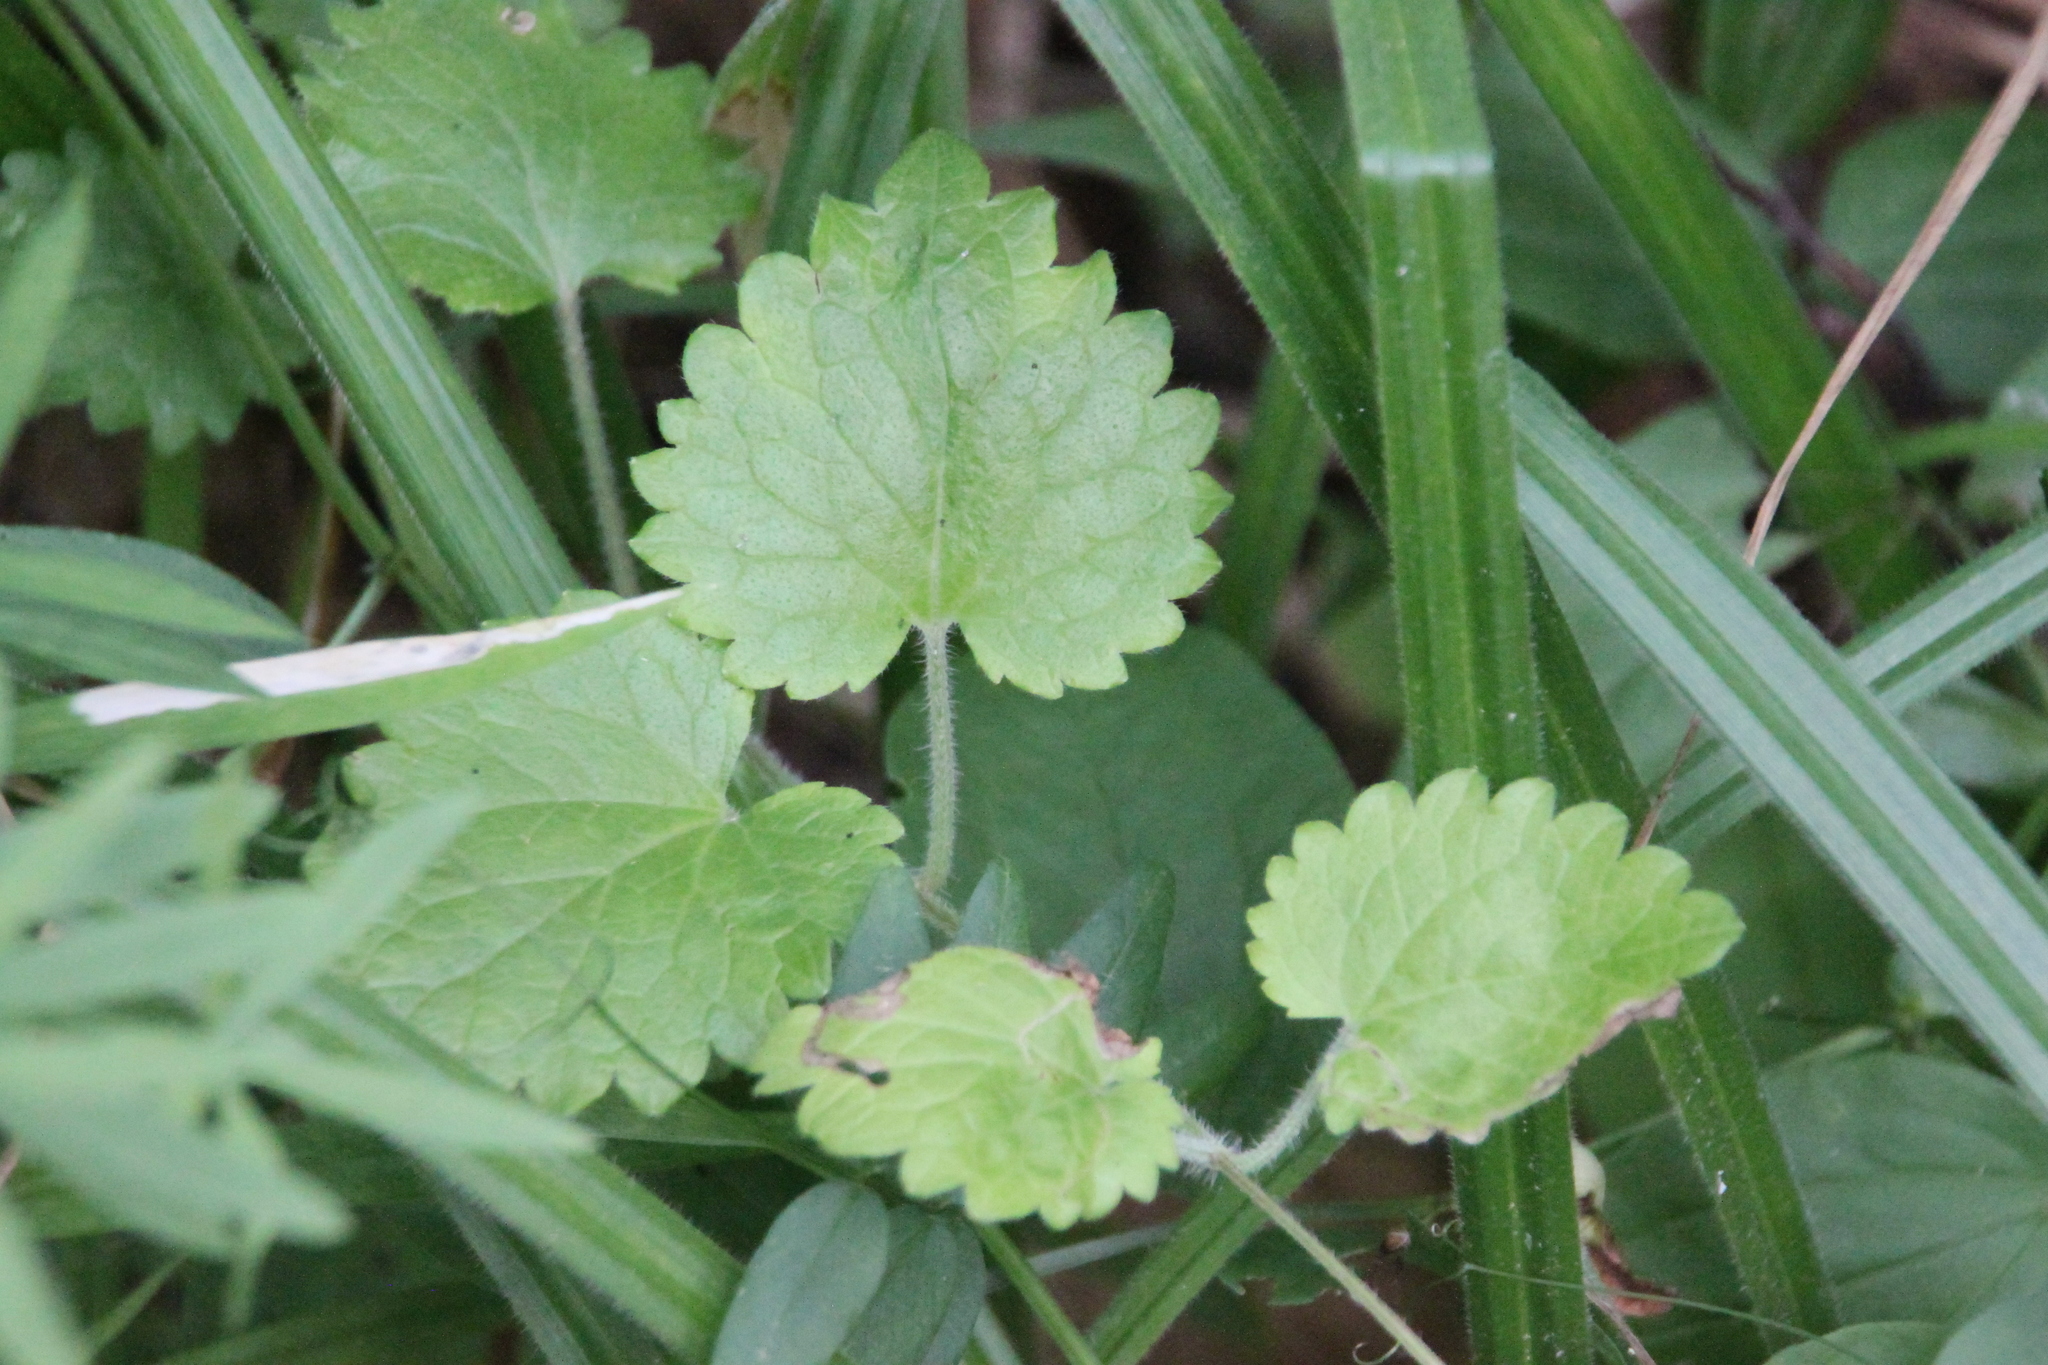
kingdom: Plantae
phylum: Tracheophyta
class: Magnoliopsida
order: Lamiales
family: Lamiaceae
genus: Glechoma
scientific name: Glechoma hederacea
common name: Ground ivy
